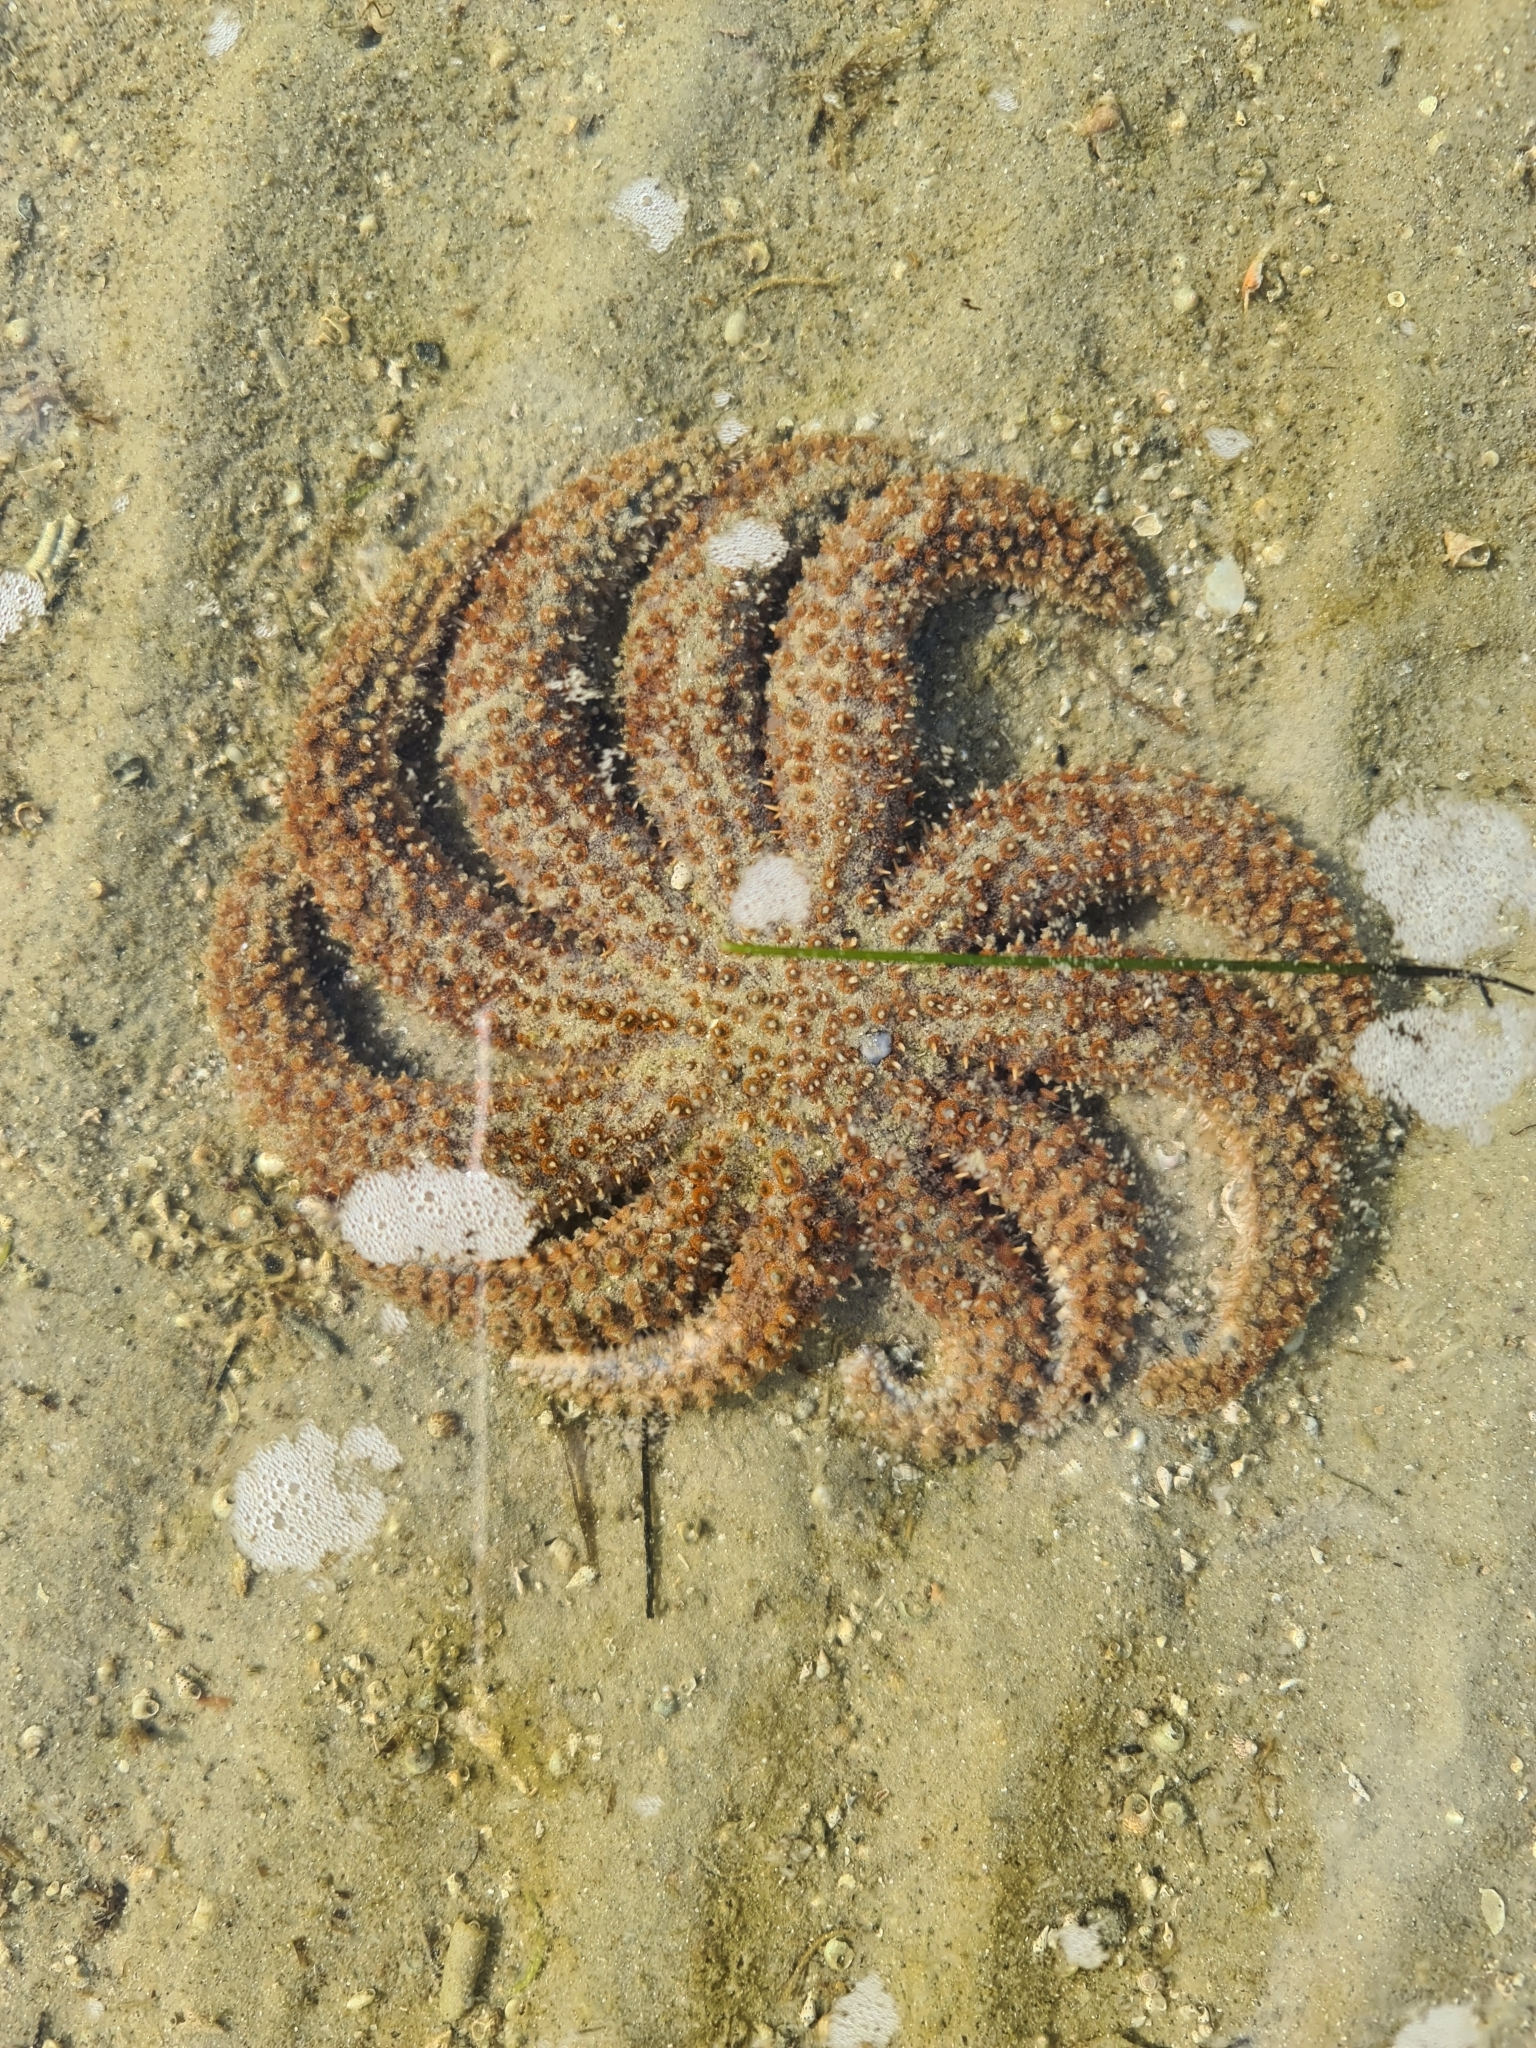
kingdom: Animalia
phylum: Echinodermata
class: Asteroidea
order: Forcipulatida
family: Asteriidae
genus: Coscinasterias
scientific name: Coscinasterias muricata
